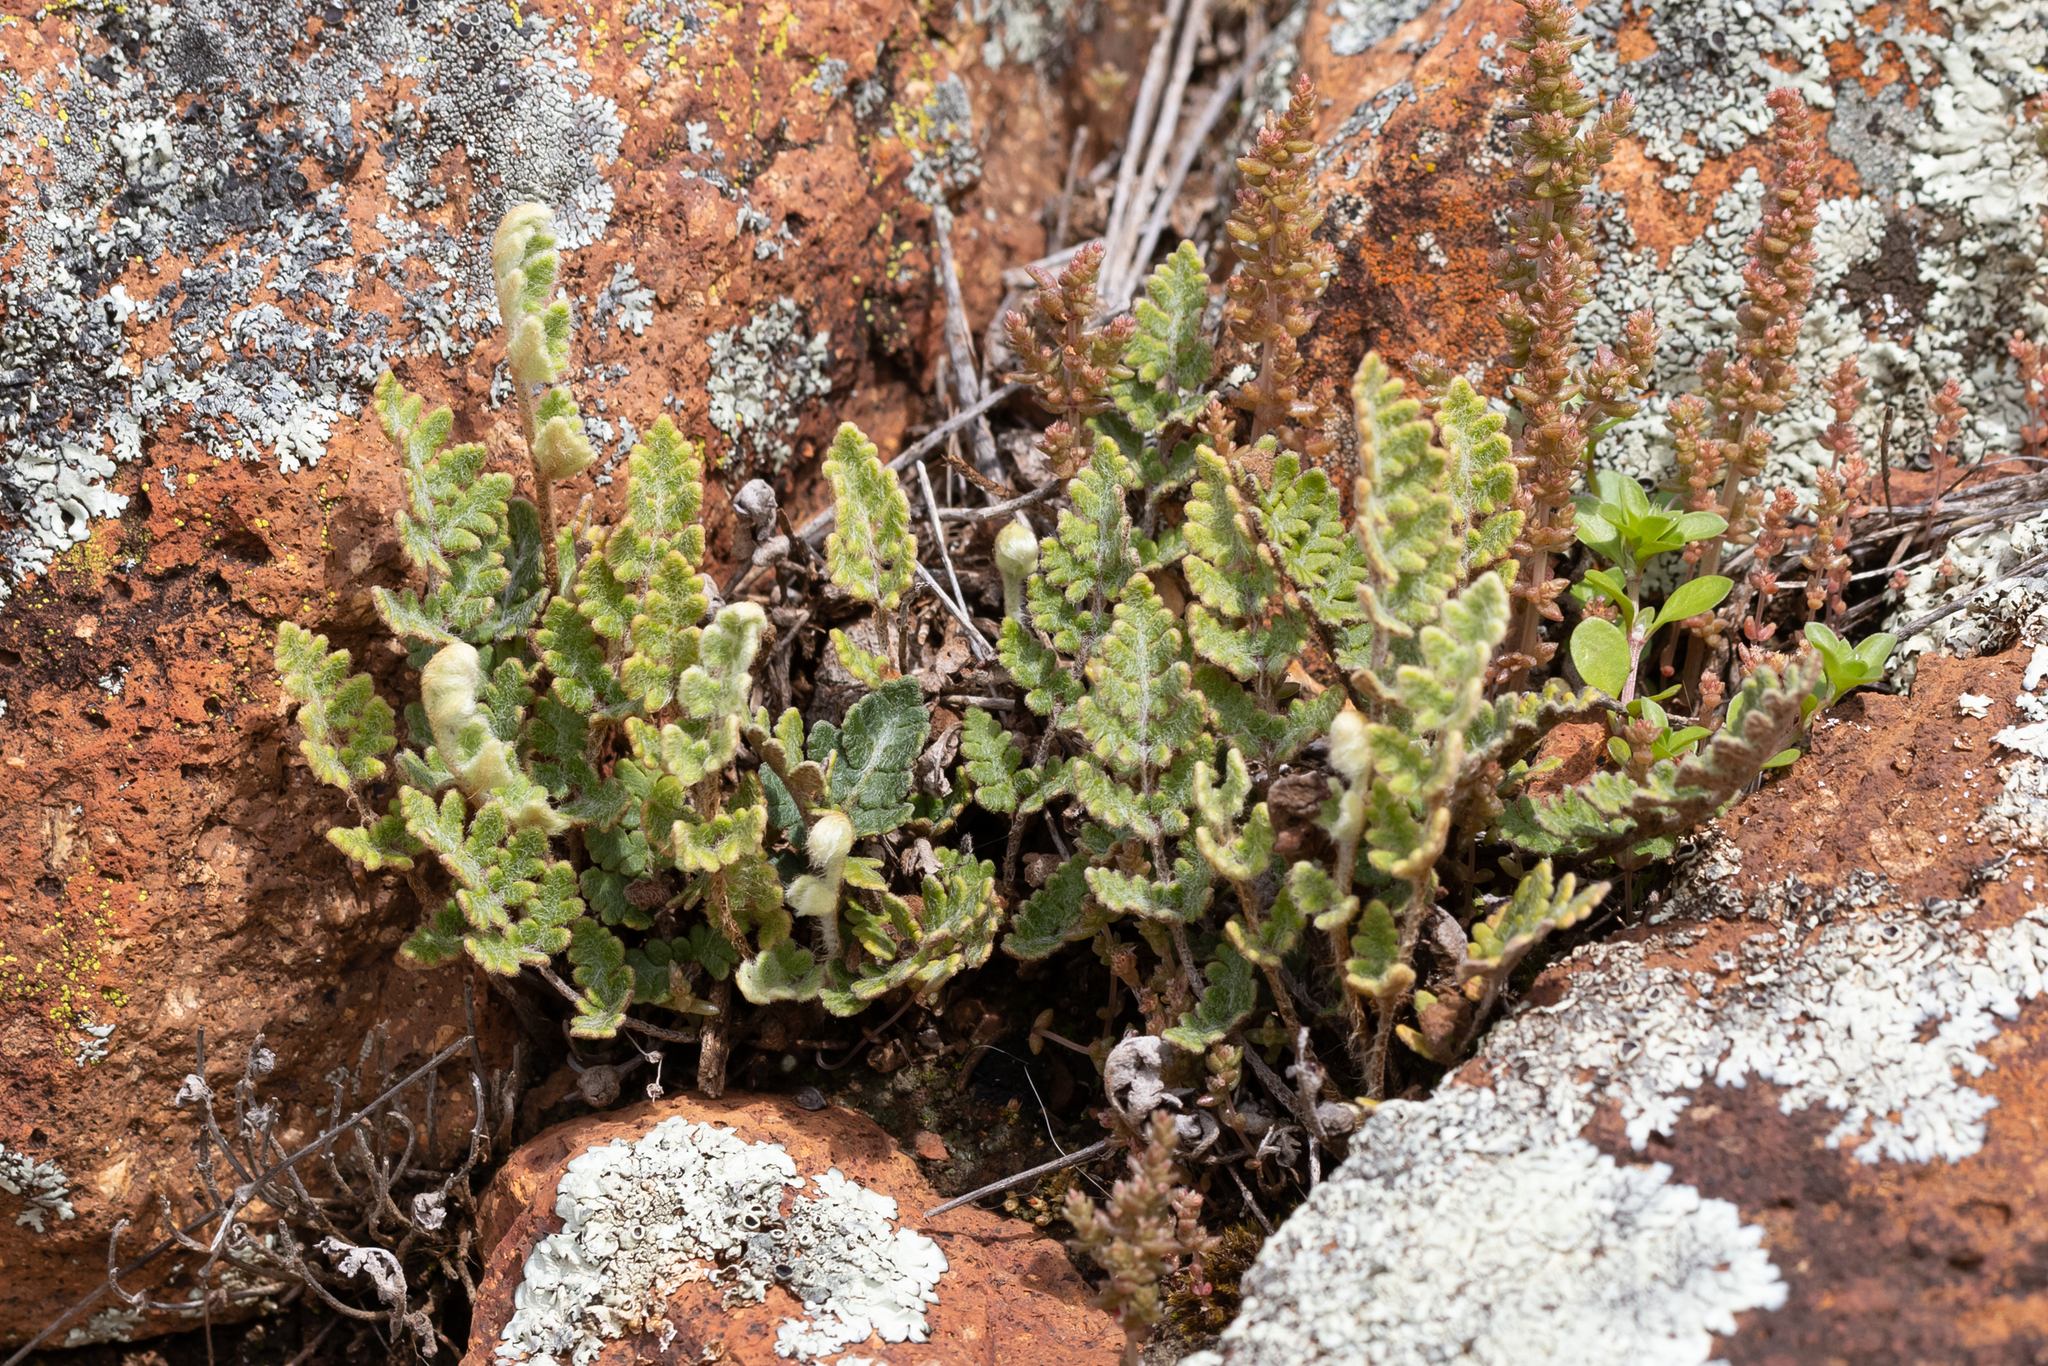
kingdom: Plantae
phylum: Tracheophyta
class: Polypodiopsida
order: Polypodiales
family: Pteridaceae
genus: Cheilanthes
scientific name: Cheilanthes lasiophylla
